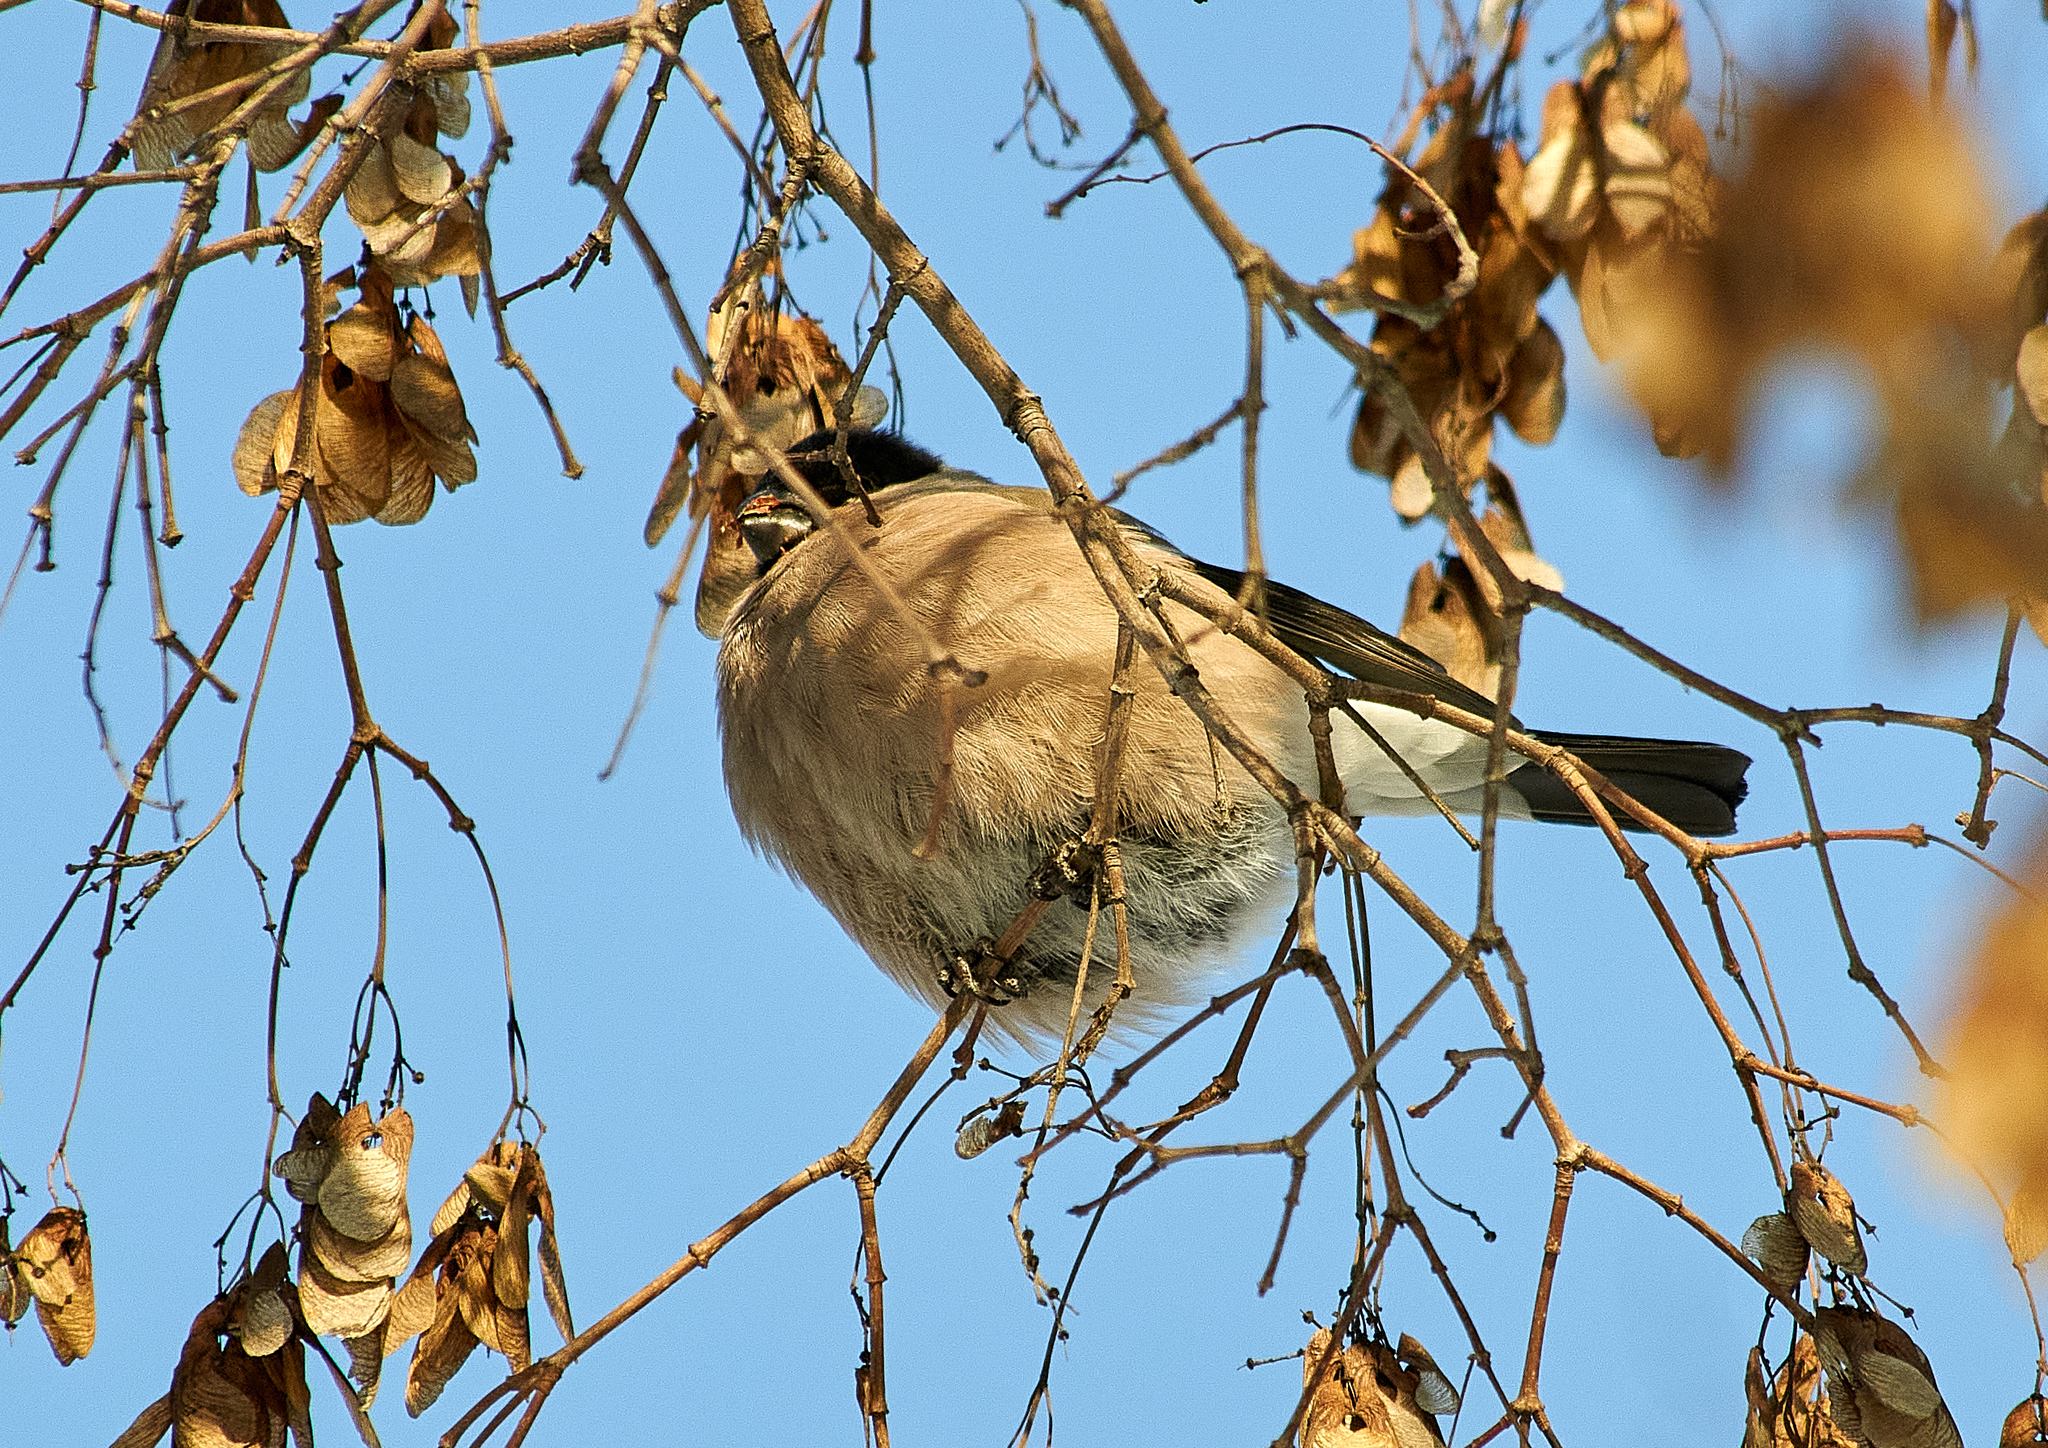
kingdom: Animalia
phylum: Chordata
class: Aves
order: Passeriformes
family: Fringillidae
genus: Pyrrhula
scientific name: Pyrrhula pyrrhula
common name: Eurasian bullfinch
